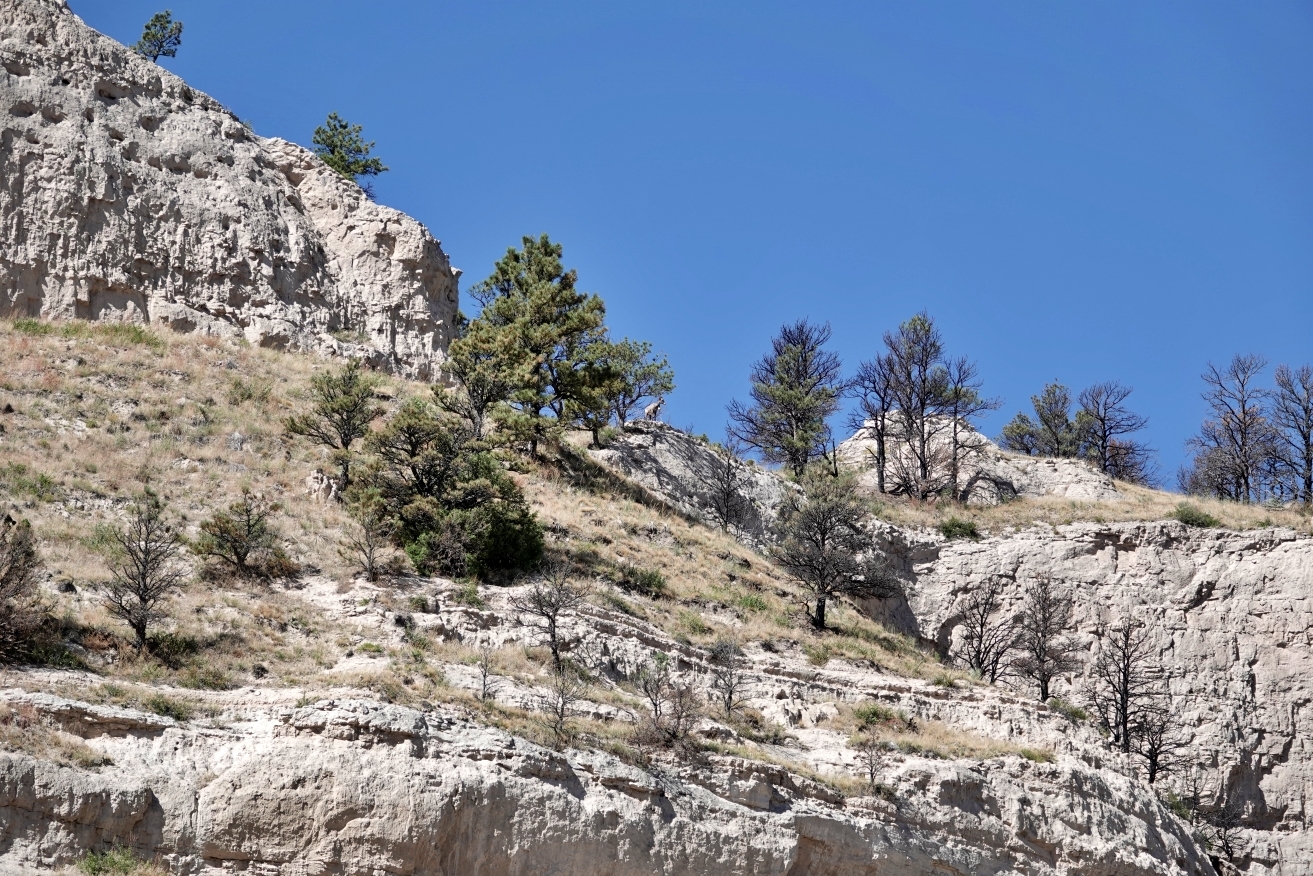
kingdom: Animalia
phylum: Chordata
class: Mammalia
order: Artiodactyla
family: Bovidae
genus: Ovis
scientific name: Ovis canadensis
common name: Bighorn sheep
